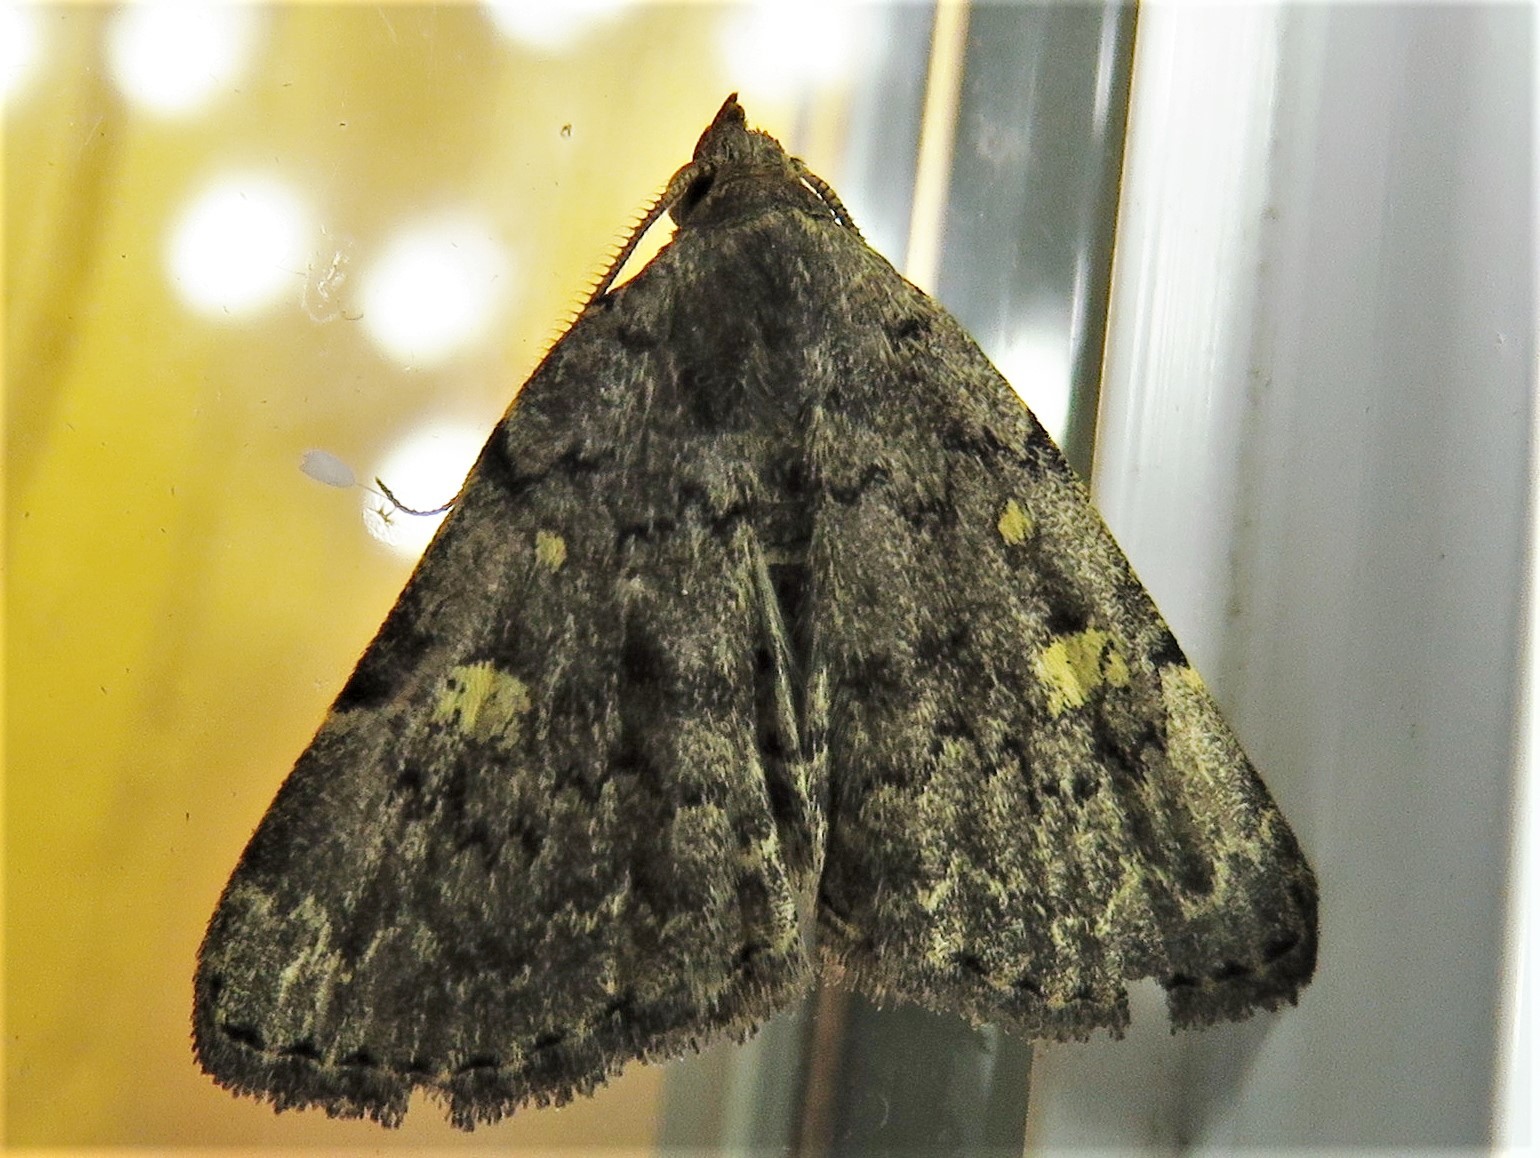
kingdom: Animalia
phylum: Arthropoda
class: Insecta
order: Lepidoptera
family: Erebidae
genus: Idia
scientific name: Idia aemula
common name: Common idia moth
